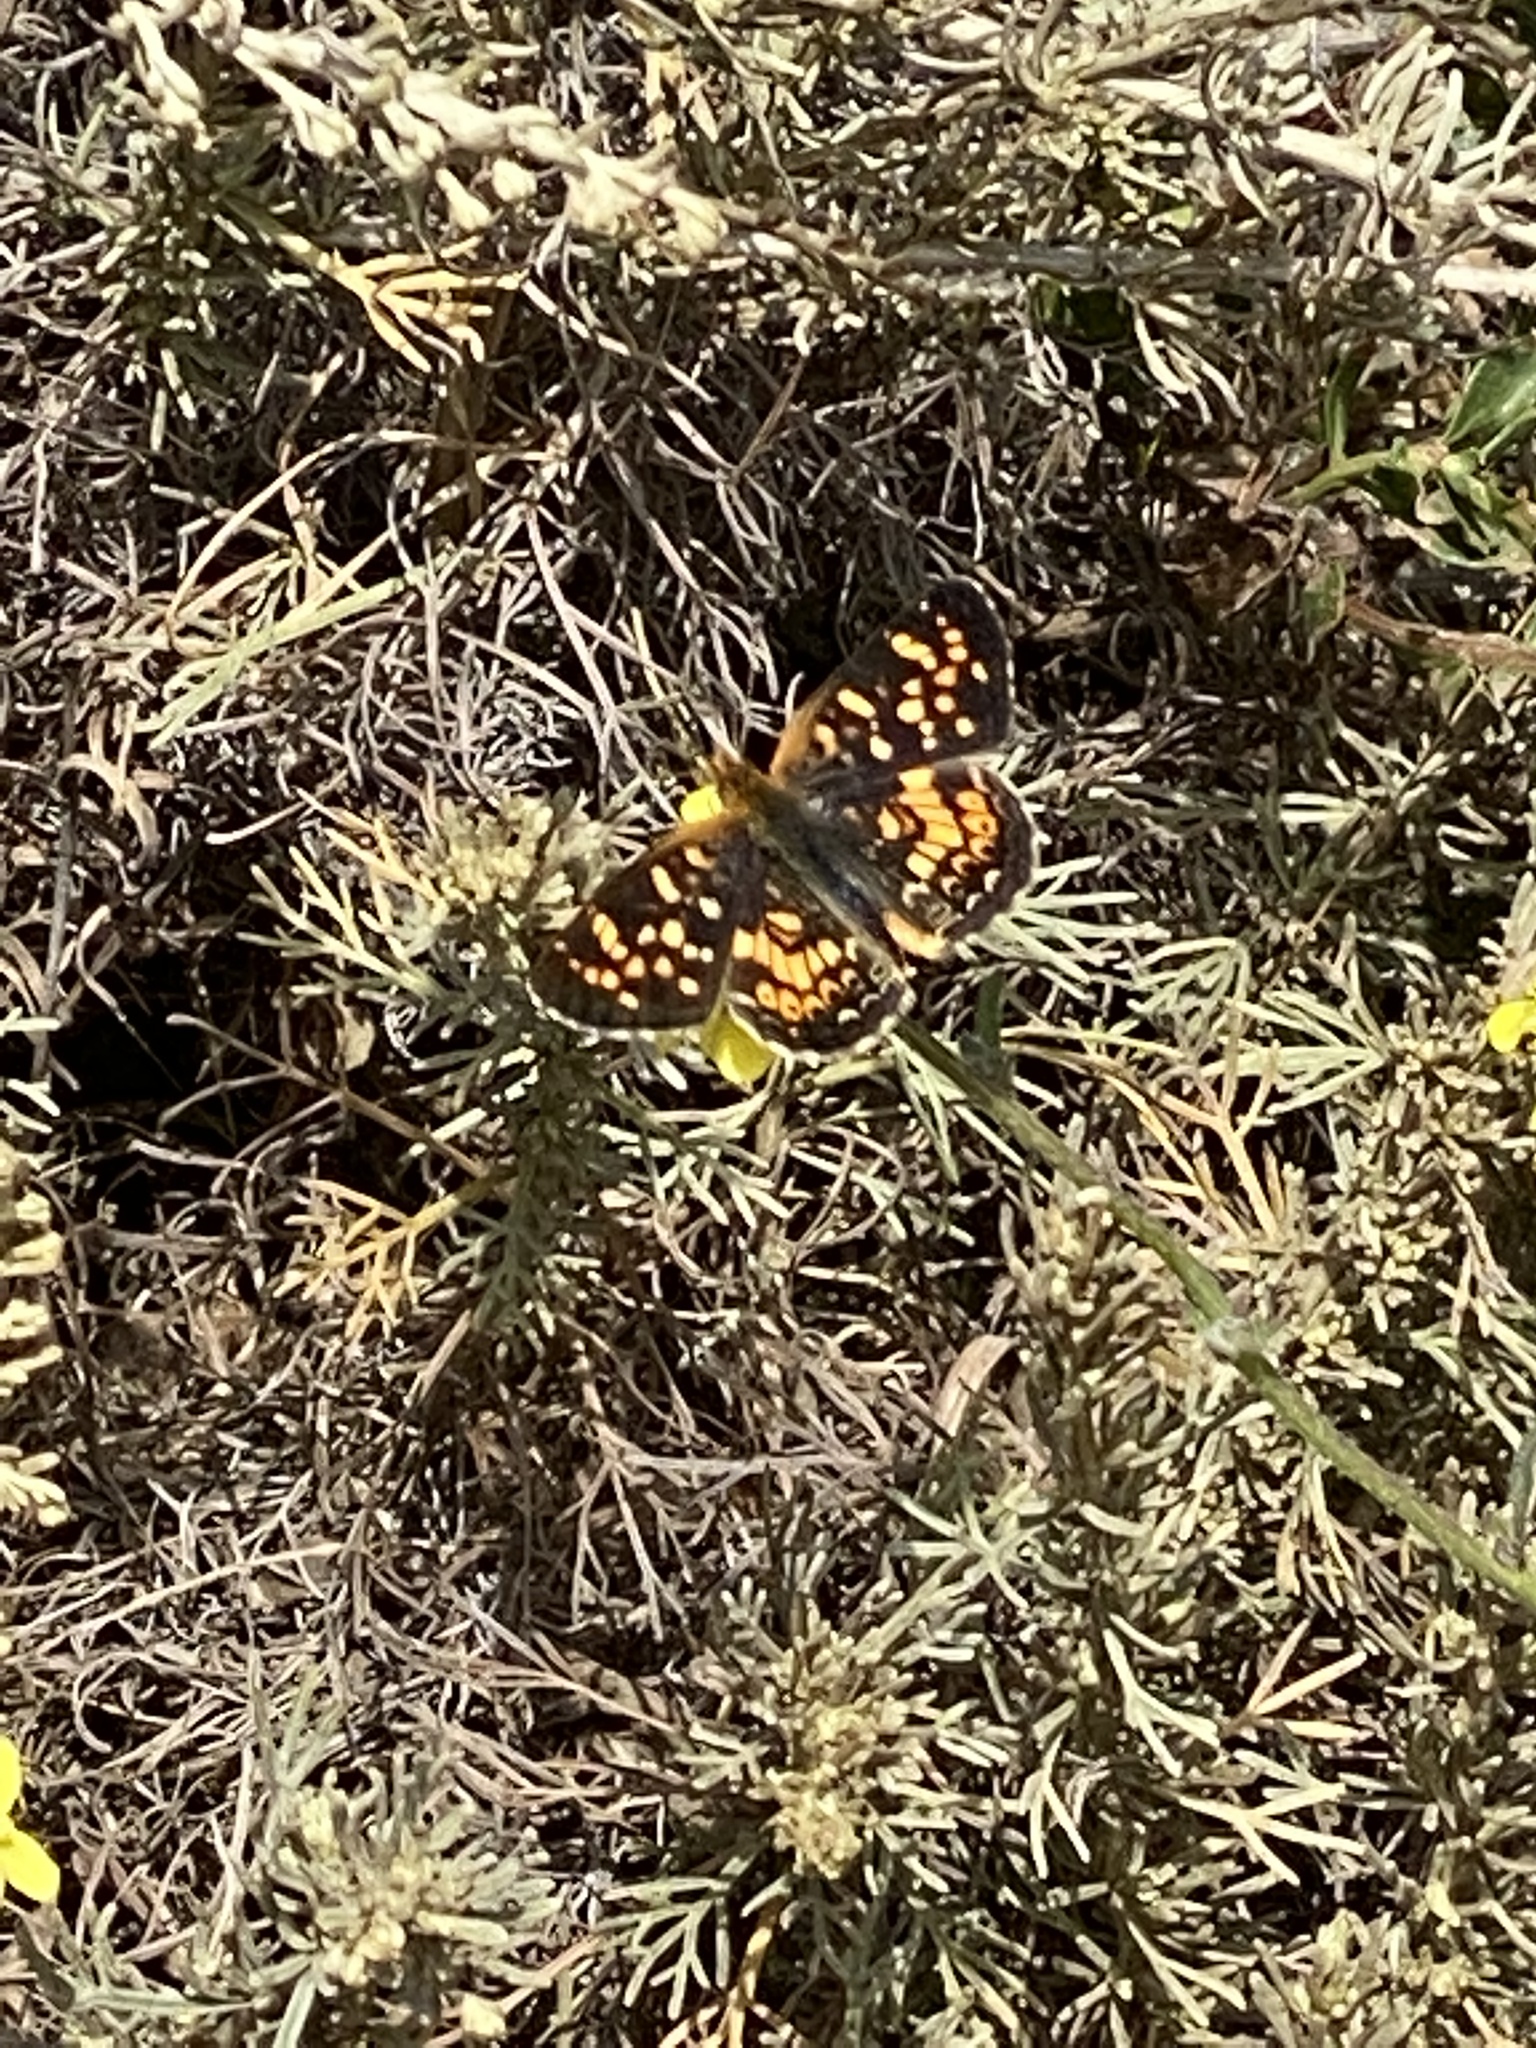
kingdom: Animalia
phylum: Arthropoda
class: Insecta
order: Lepidoptera
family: Nymphalidae
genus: Phyciodes
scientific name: Phyciodes tharos
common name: Pearl crescent
